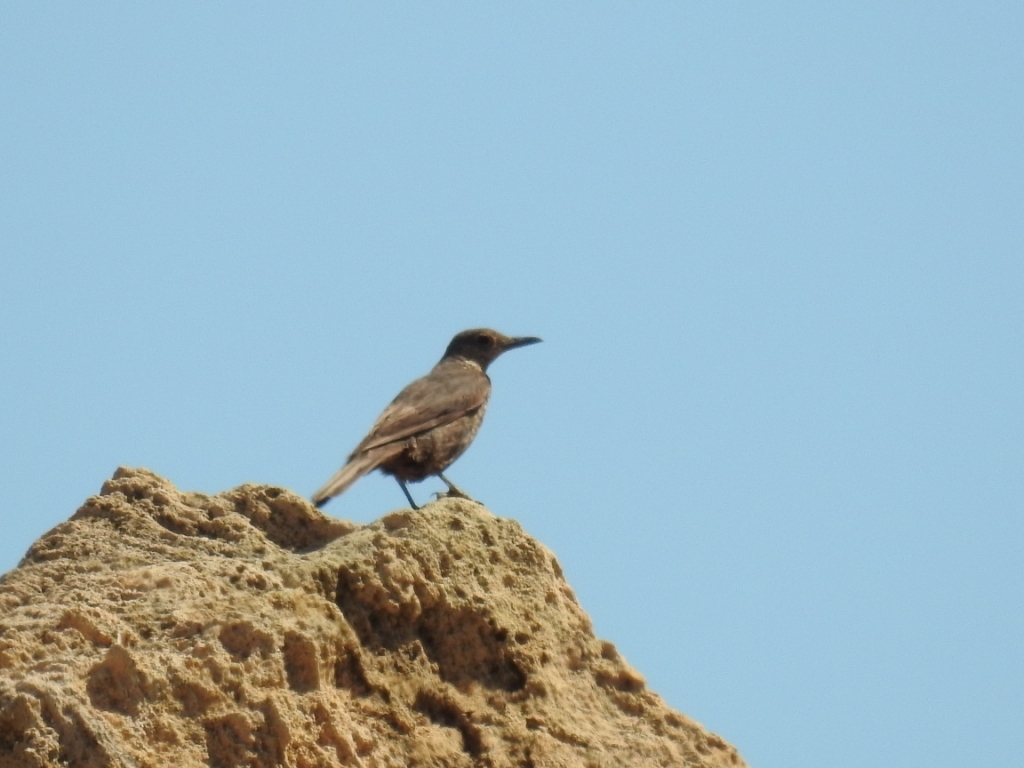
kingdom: Animalia
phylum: Chordata
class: Aves
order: Passeriformes
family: Muscicapidae
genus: Monticola
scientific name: Monticola solitarius
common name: Blue rock thrush
